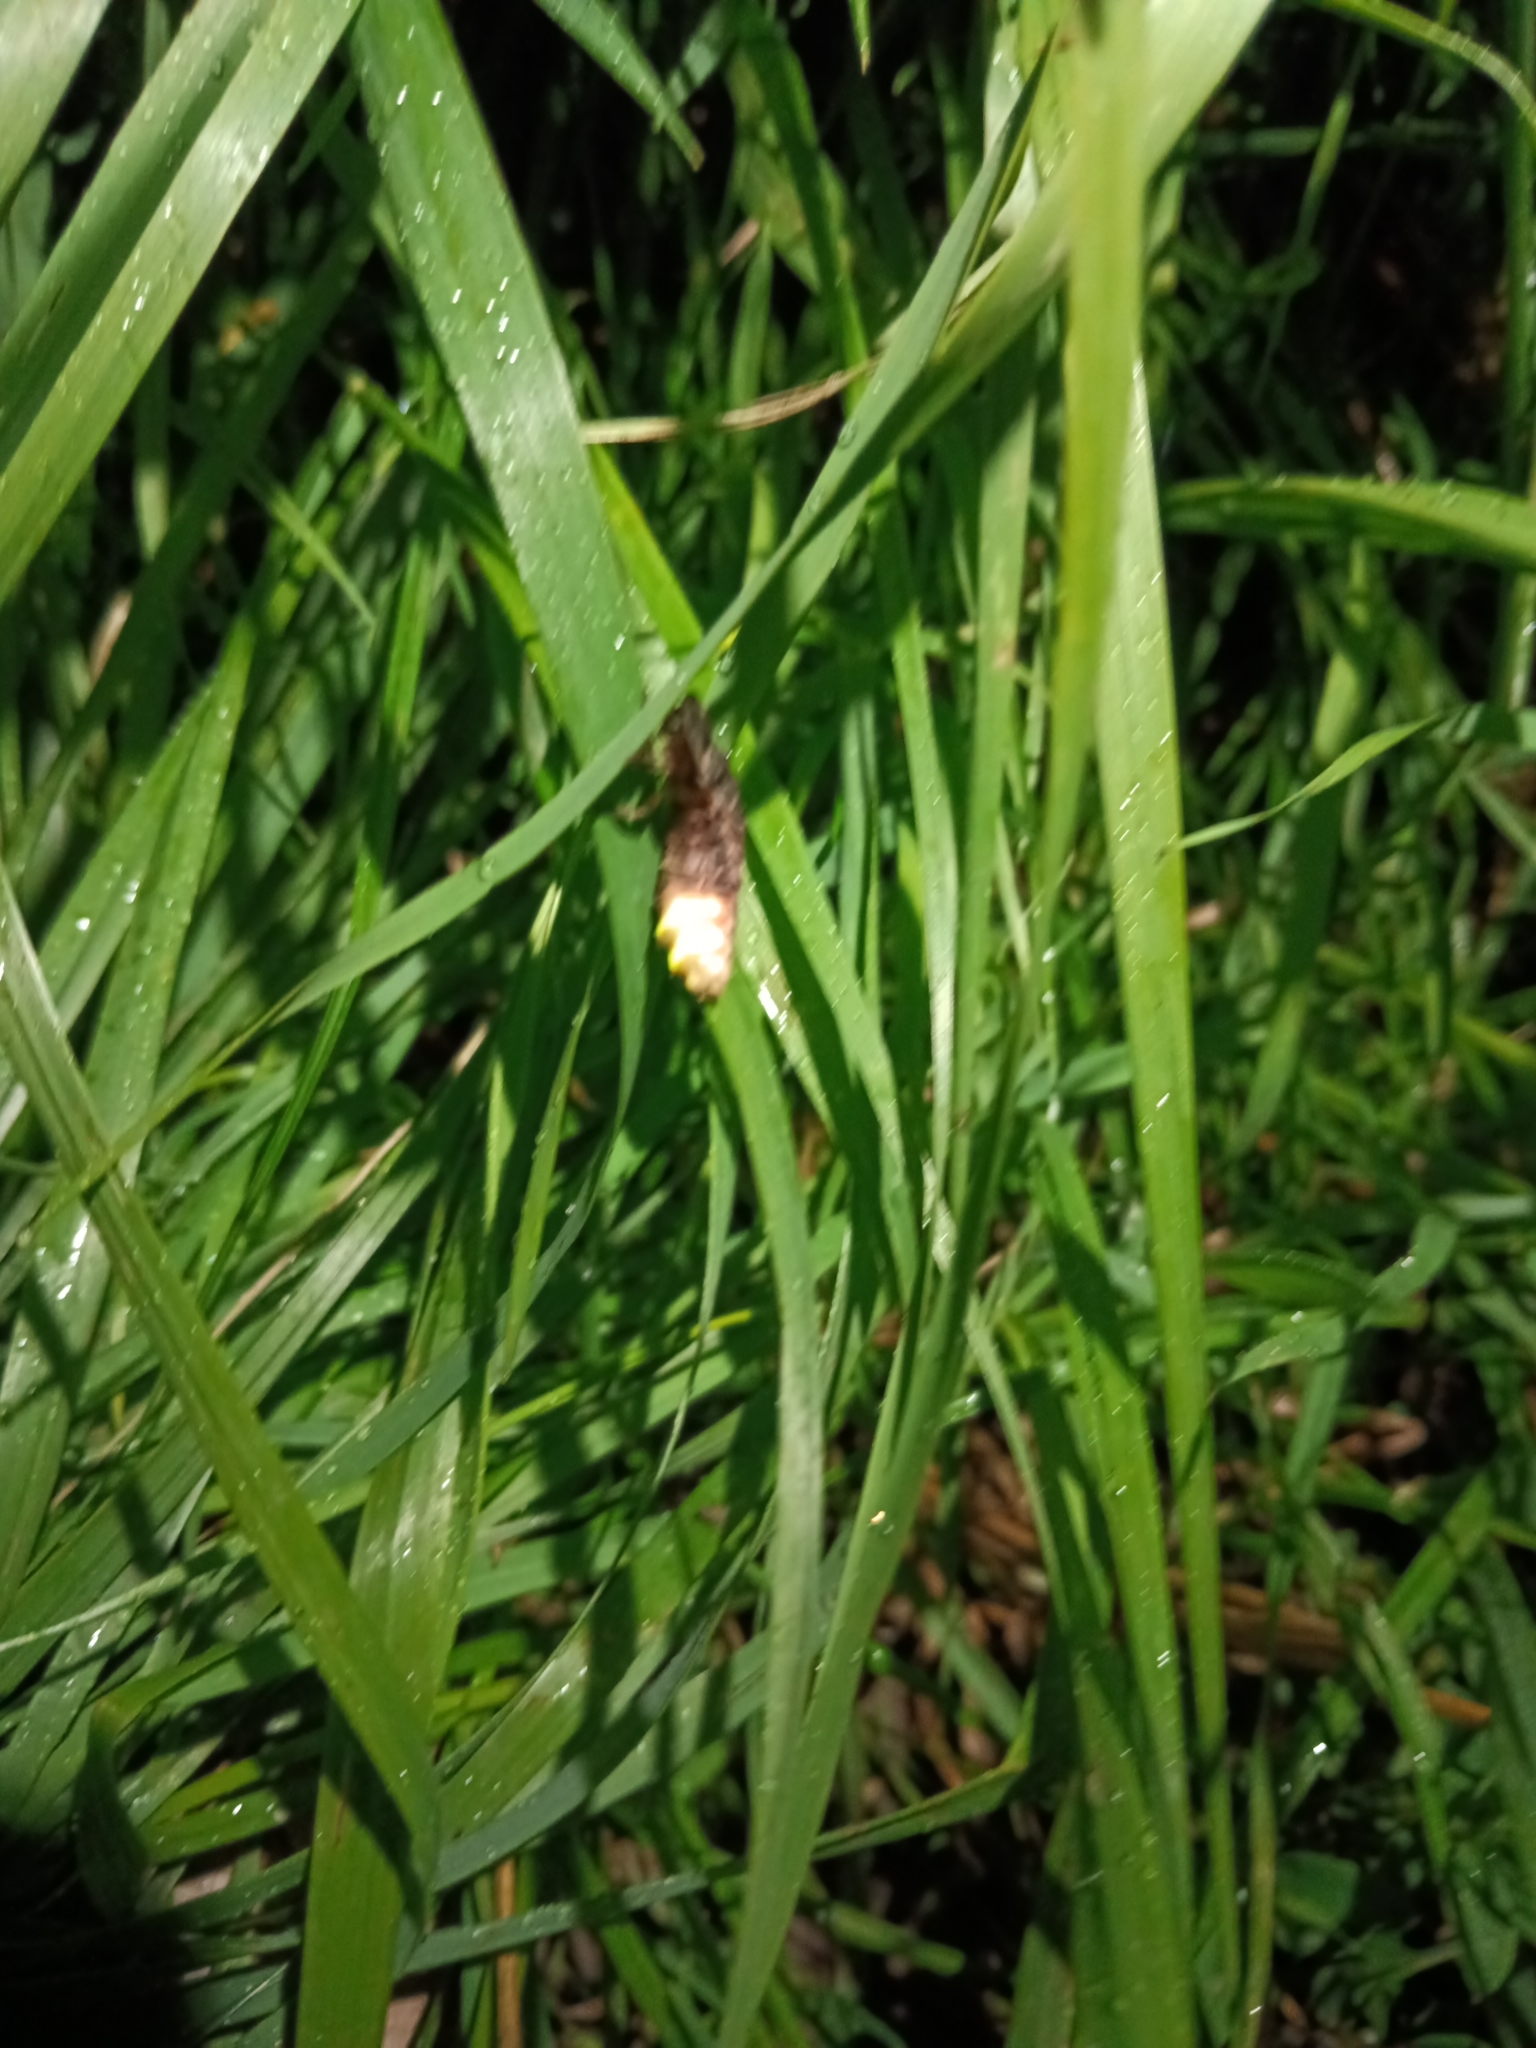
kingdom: Animalia
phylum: Arthropoda
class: Insecta
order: Coleoptera
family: Lampyridae
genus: Lampyris
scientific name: Lampyris noctiluca
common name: Glow-worm
